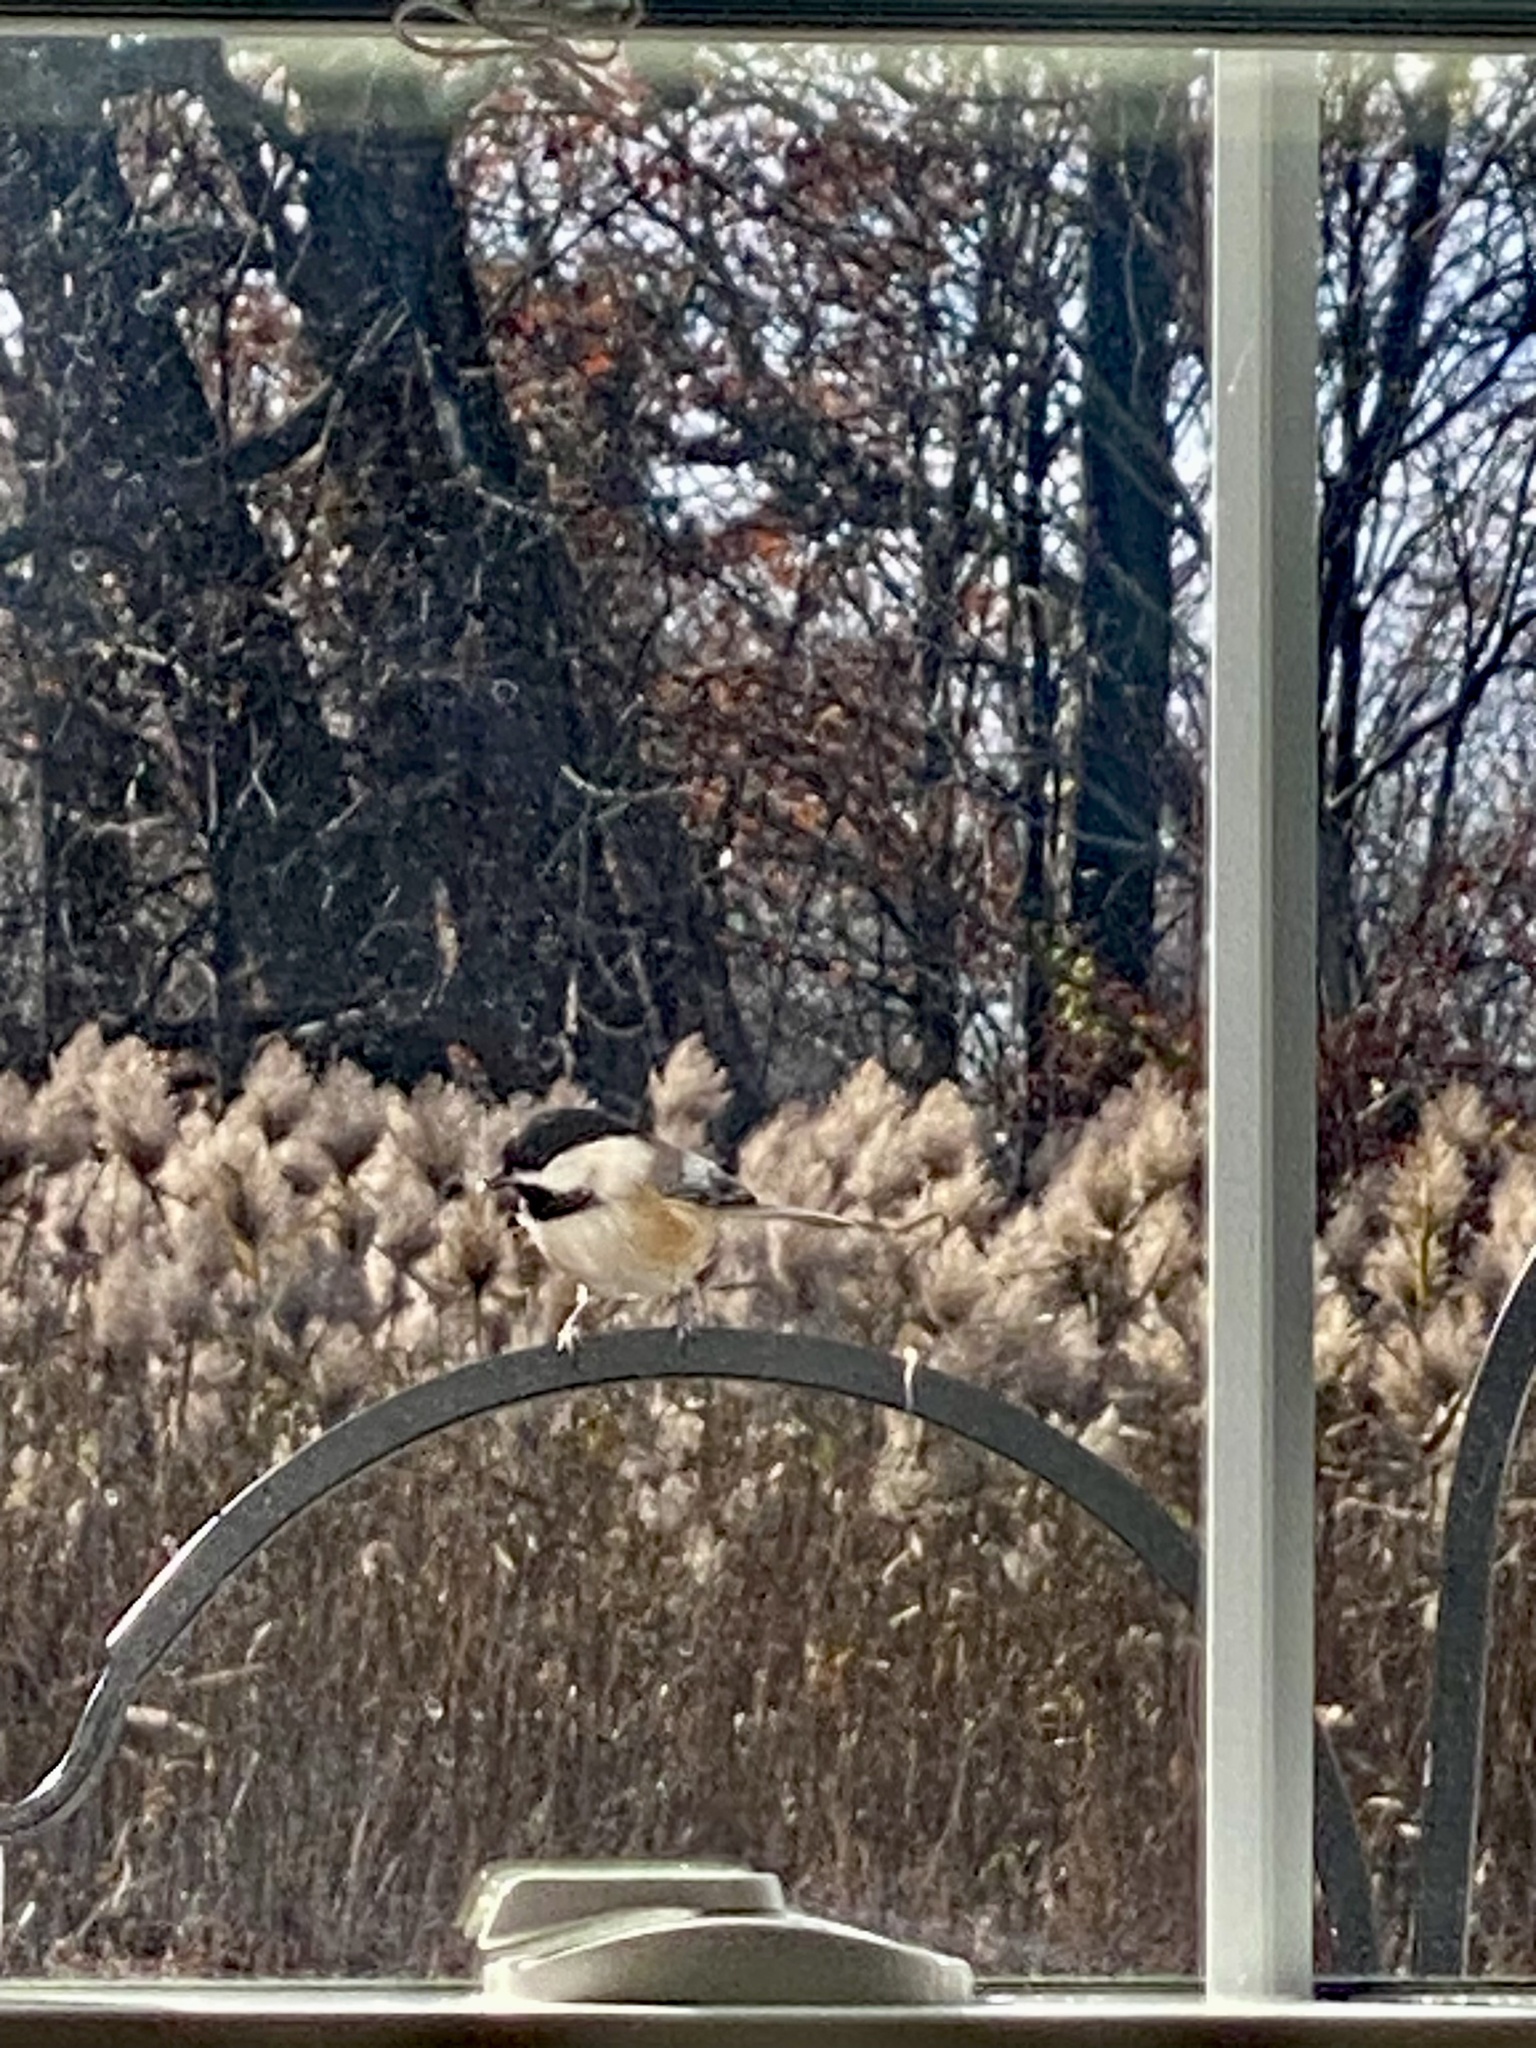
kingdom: Animalia
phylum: Chordata
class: Aves
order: Passeriformes
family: Paridae
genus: Poecile
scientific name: Poecile atricapillus
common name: Black-capped chickadee
